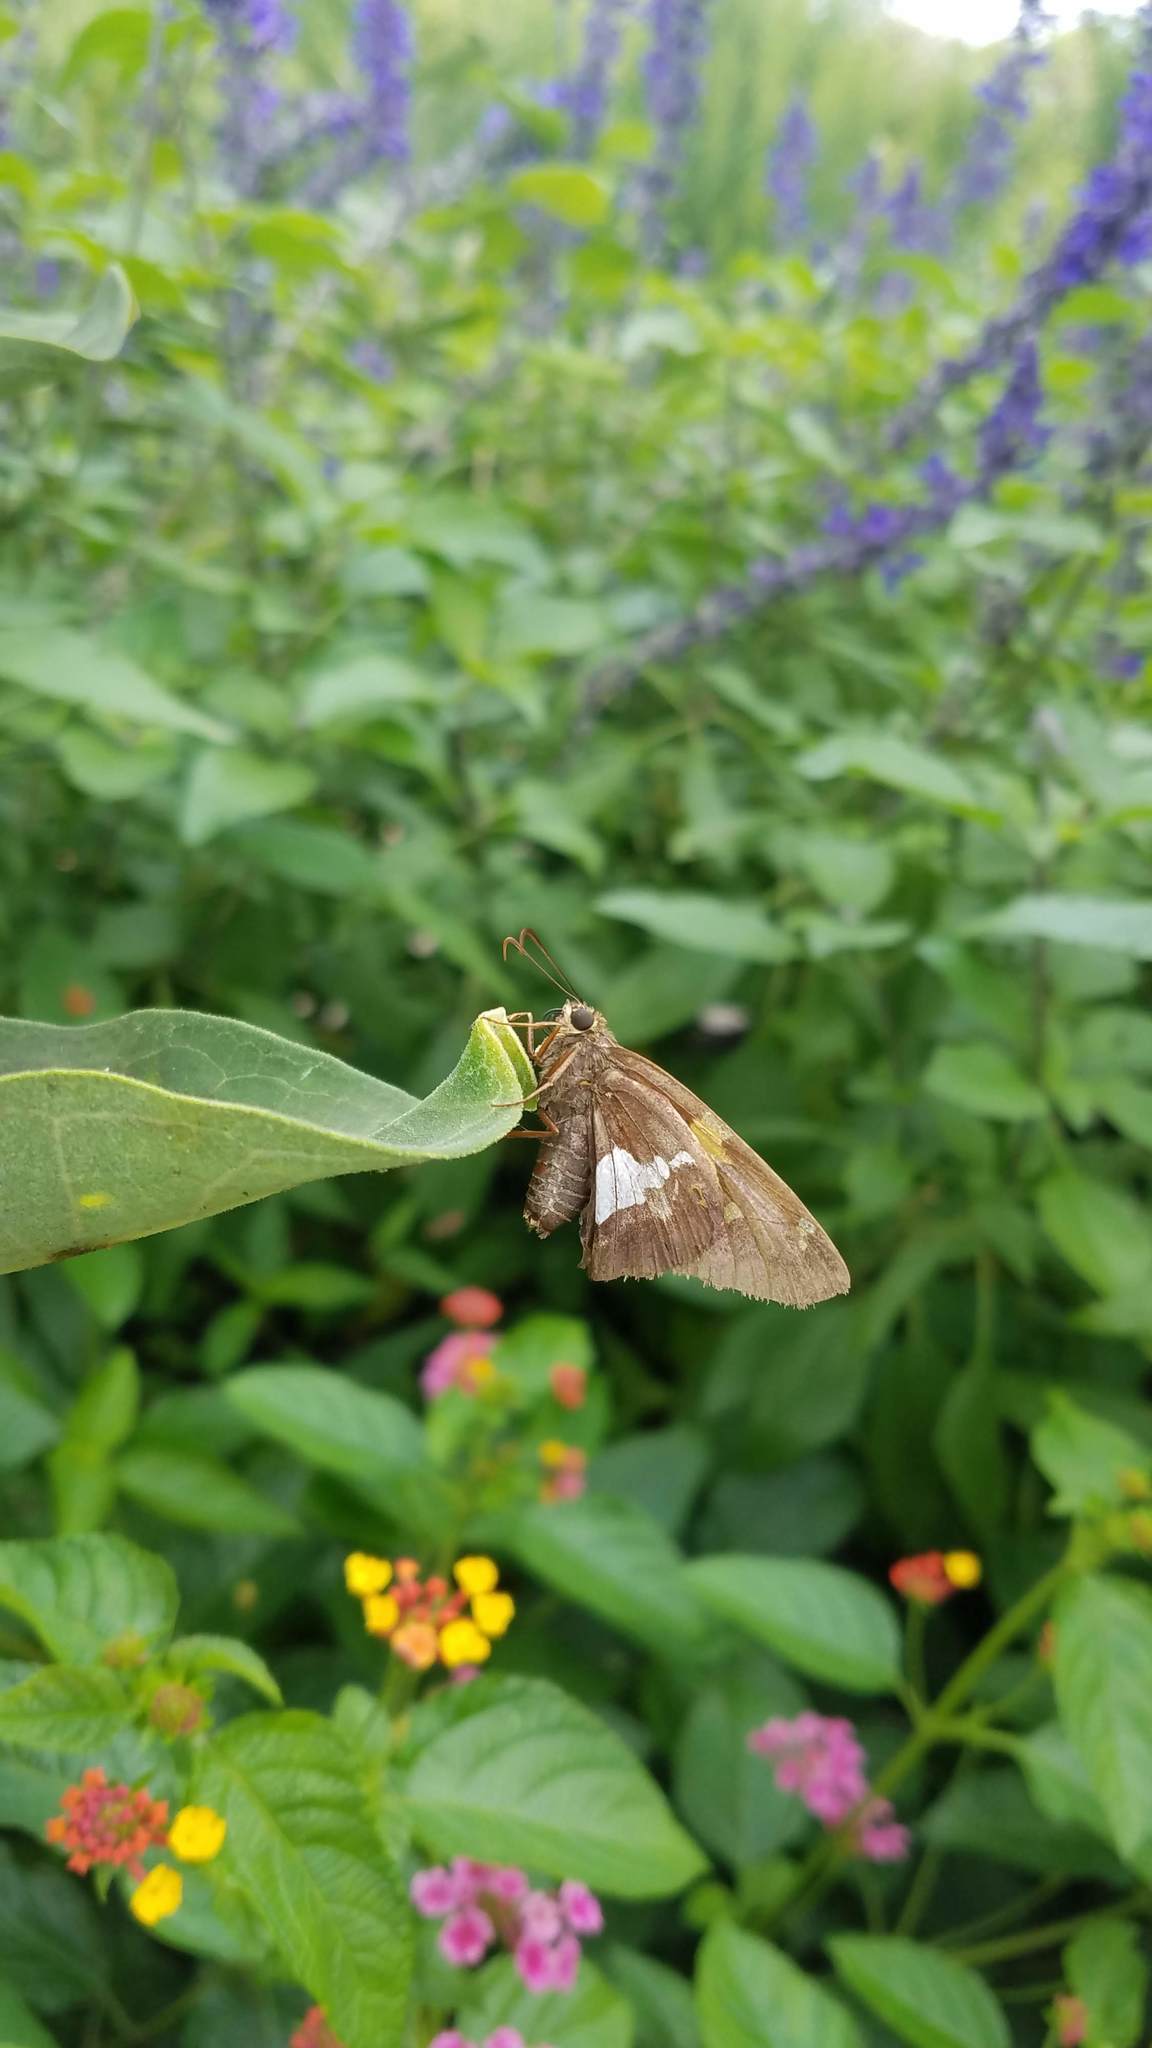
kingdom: Animalia
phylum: Arthropoda
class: Insecta
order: Lepidoptera
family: Hesperiidae
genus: Epargyreus
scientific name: Epargyreus clarus
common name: Silver-spotted skipper
